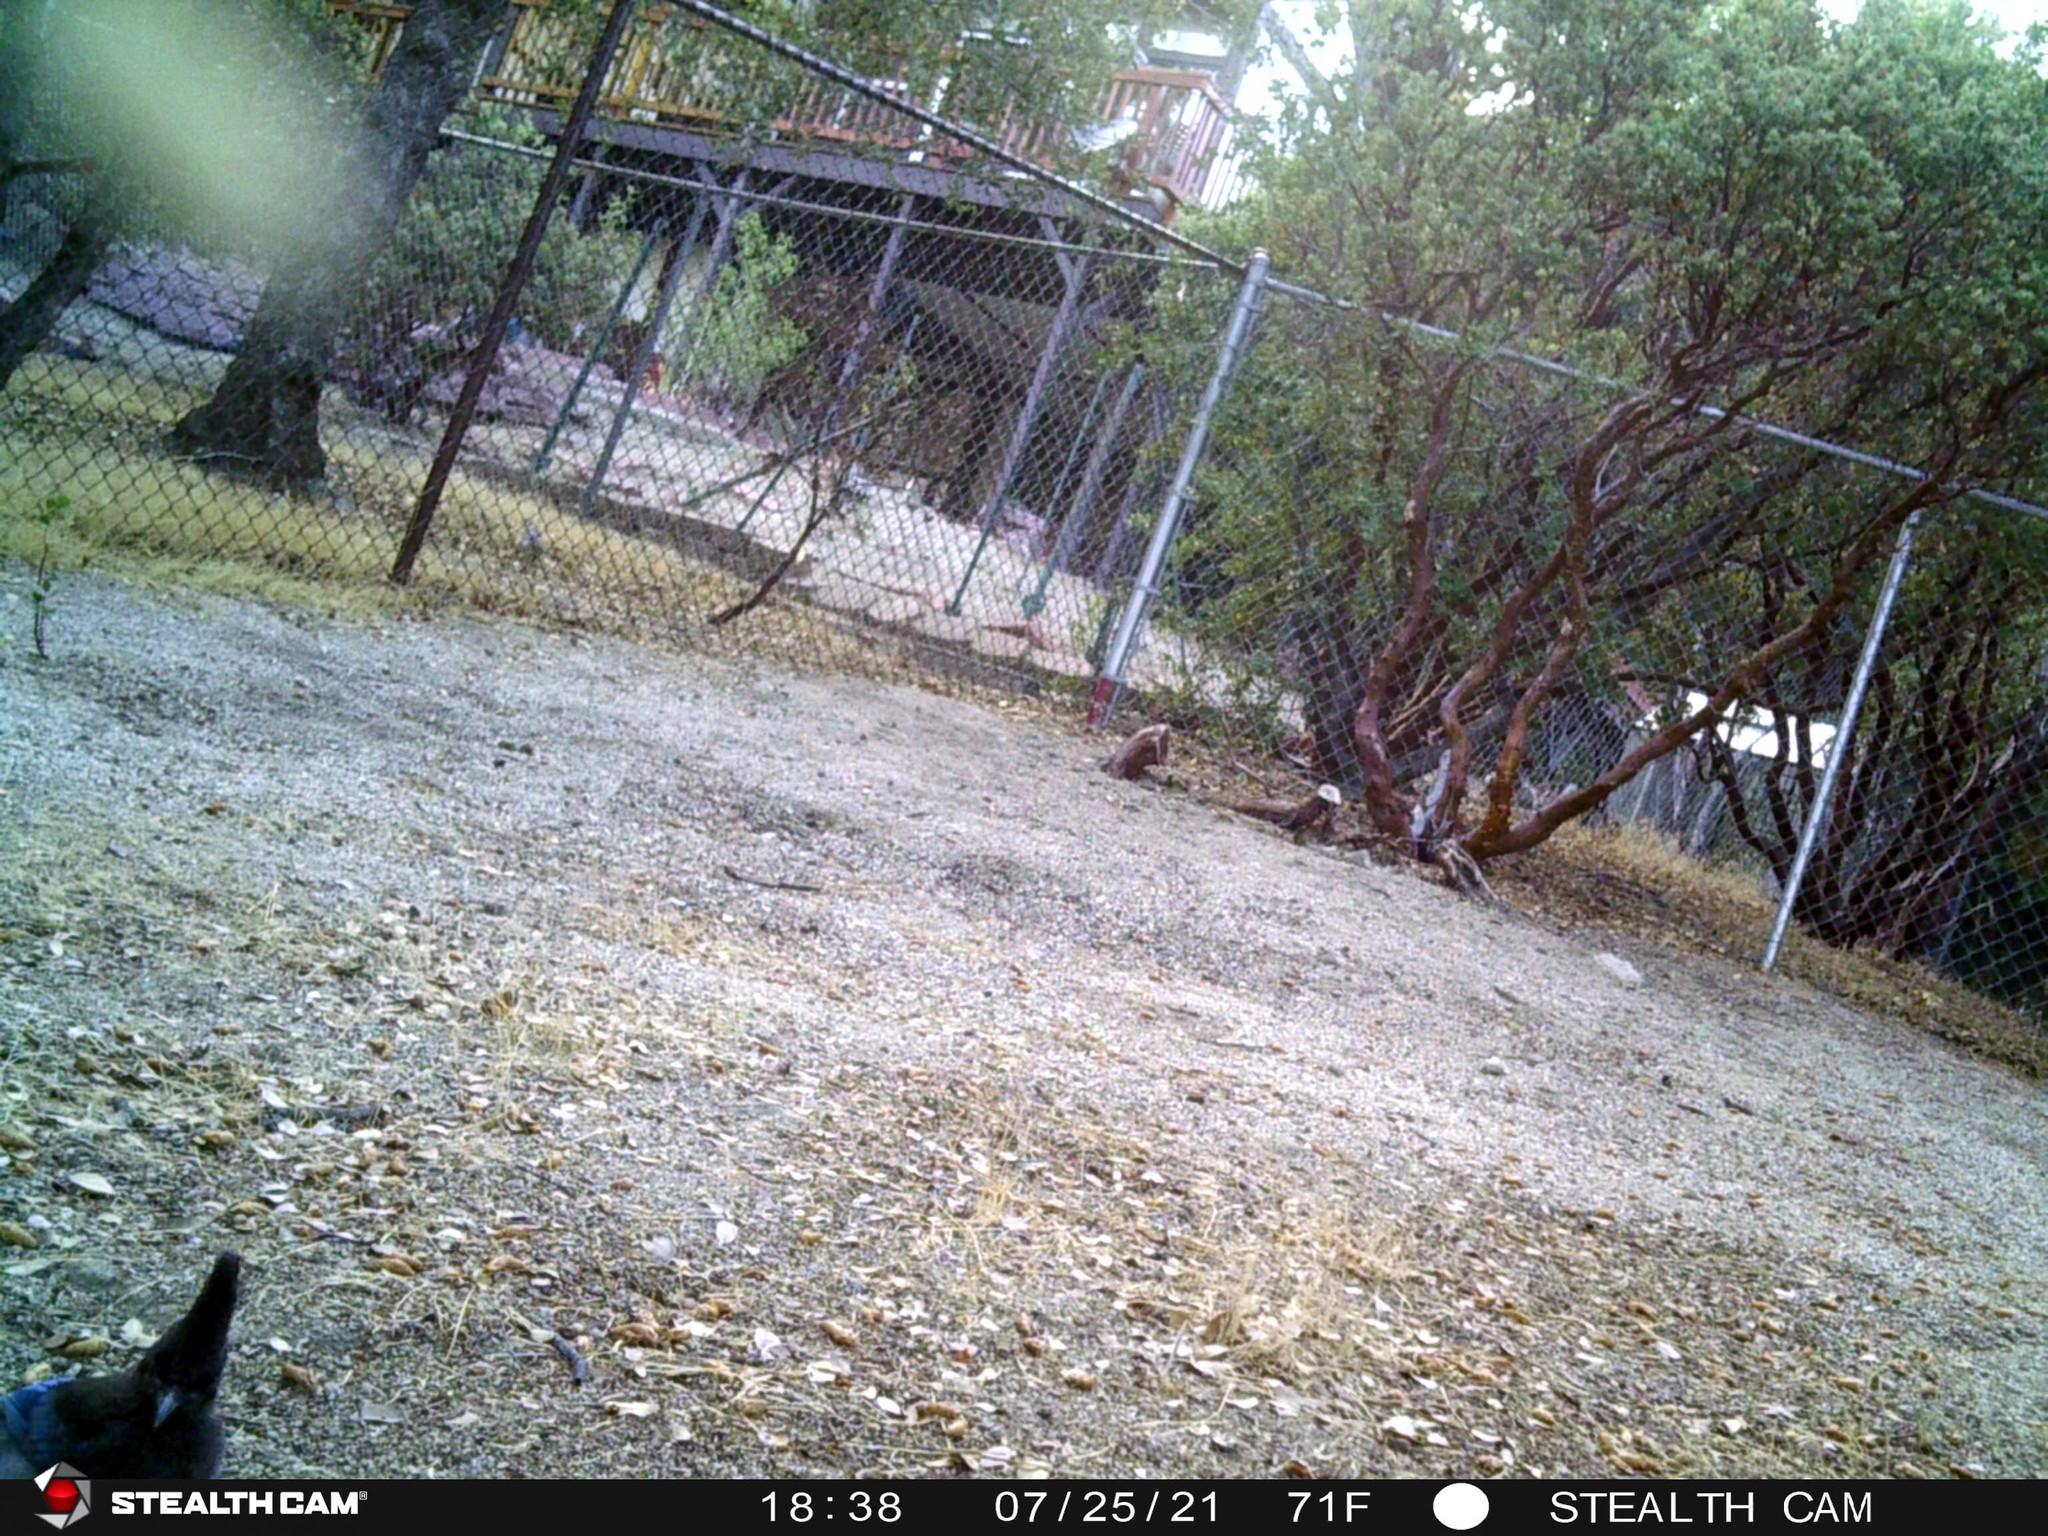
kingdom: Animalia
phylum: Chordata
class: Aves
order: Passeriformes
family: Corvidae
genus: Cyanocitta
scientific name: Cyanocitta stelleri
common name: Steller's jay
